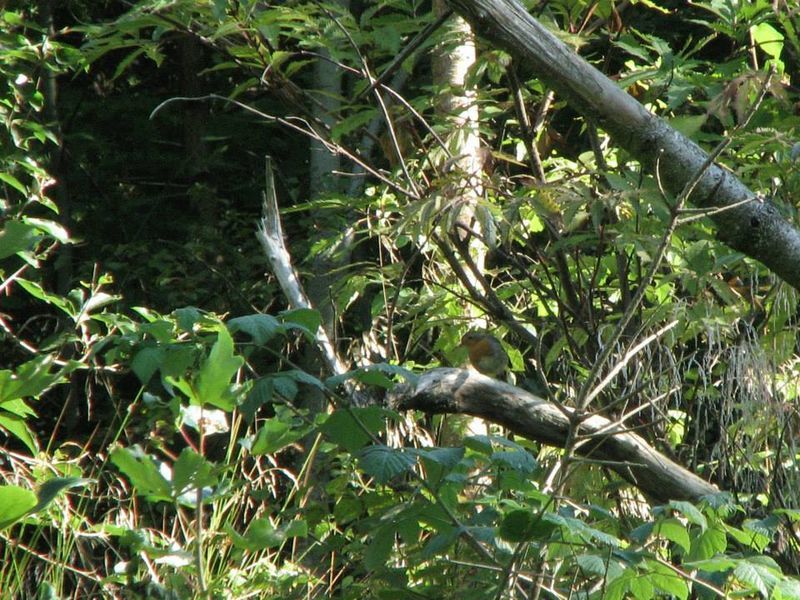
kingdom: Animalia
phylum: Chordata
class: Aves
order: Passeriformes
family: Muscicapidae
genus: Erithacus
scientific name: Erithacus rubecula
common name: European robin
